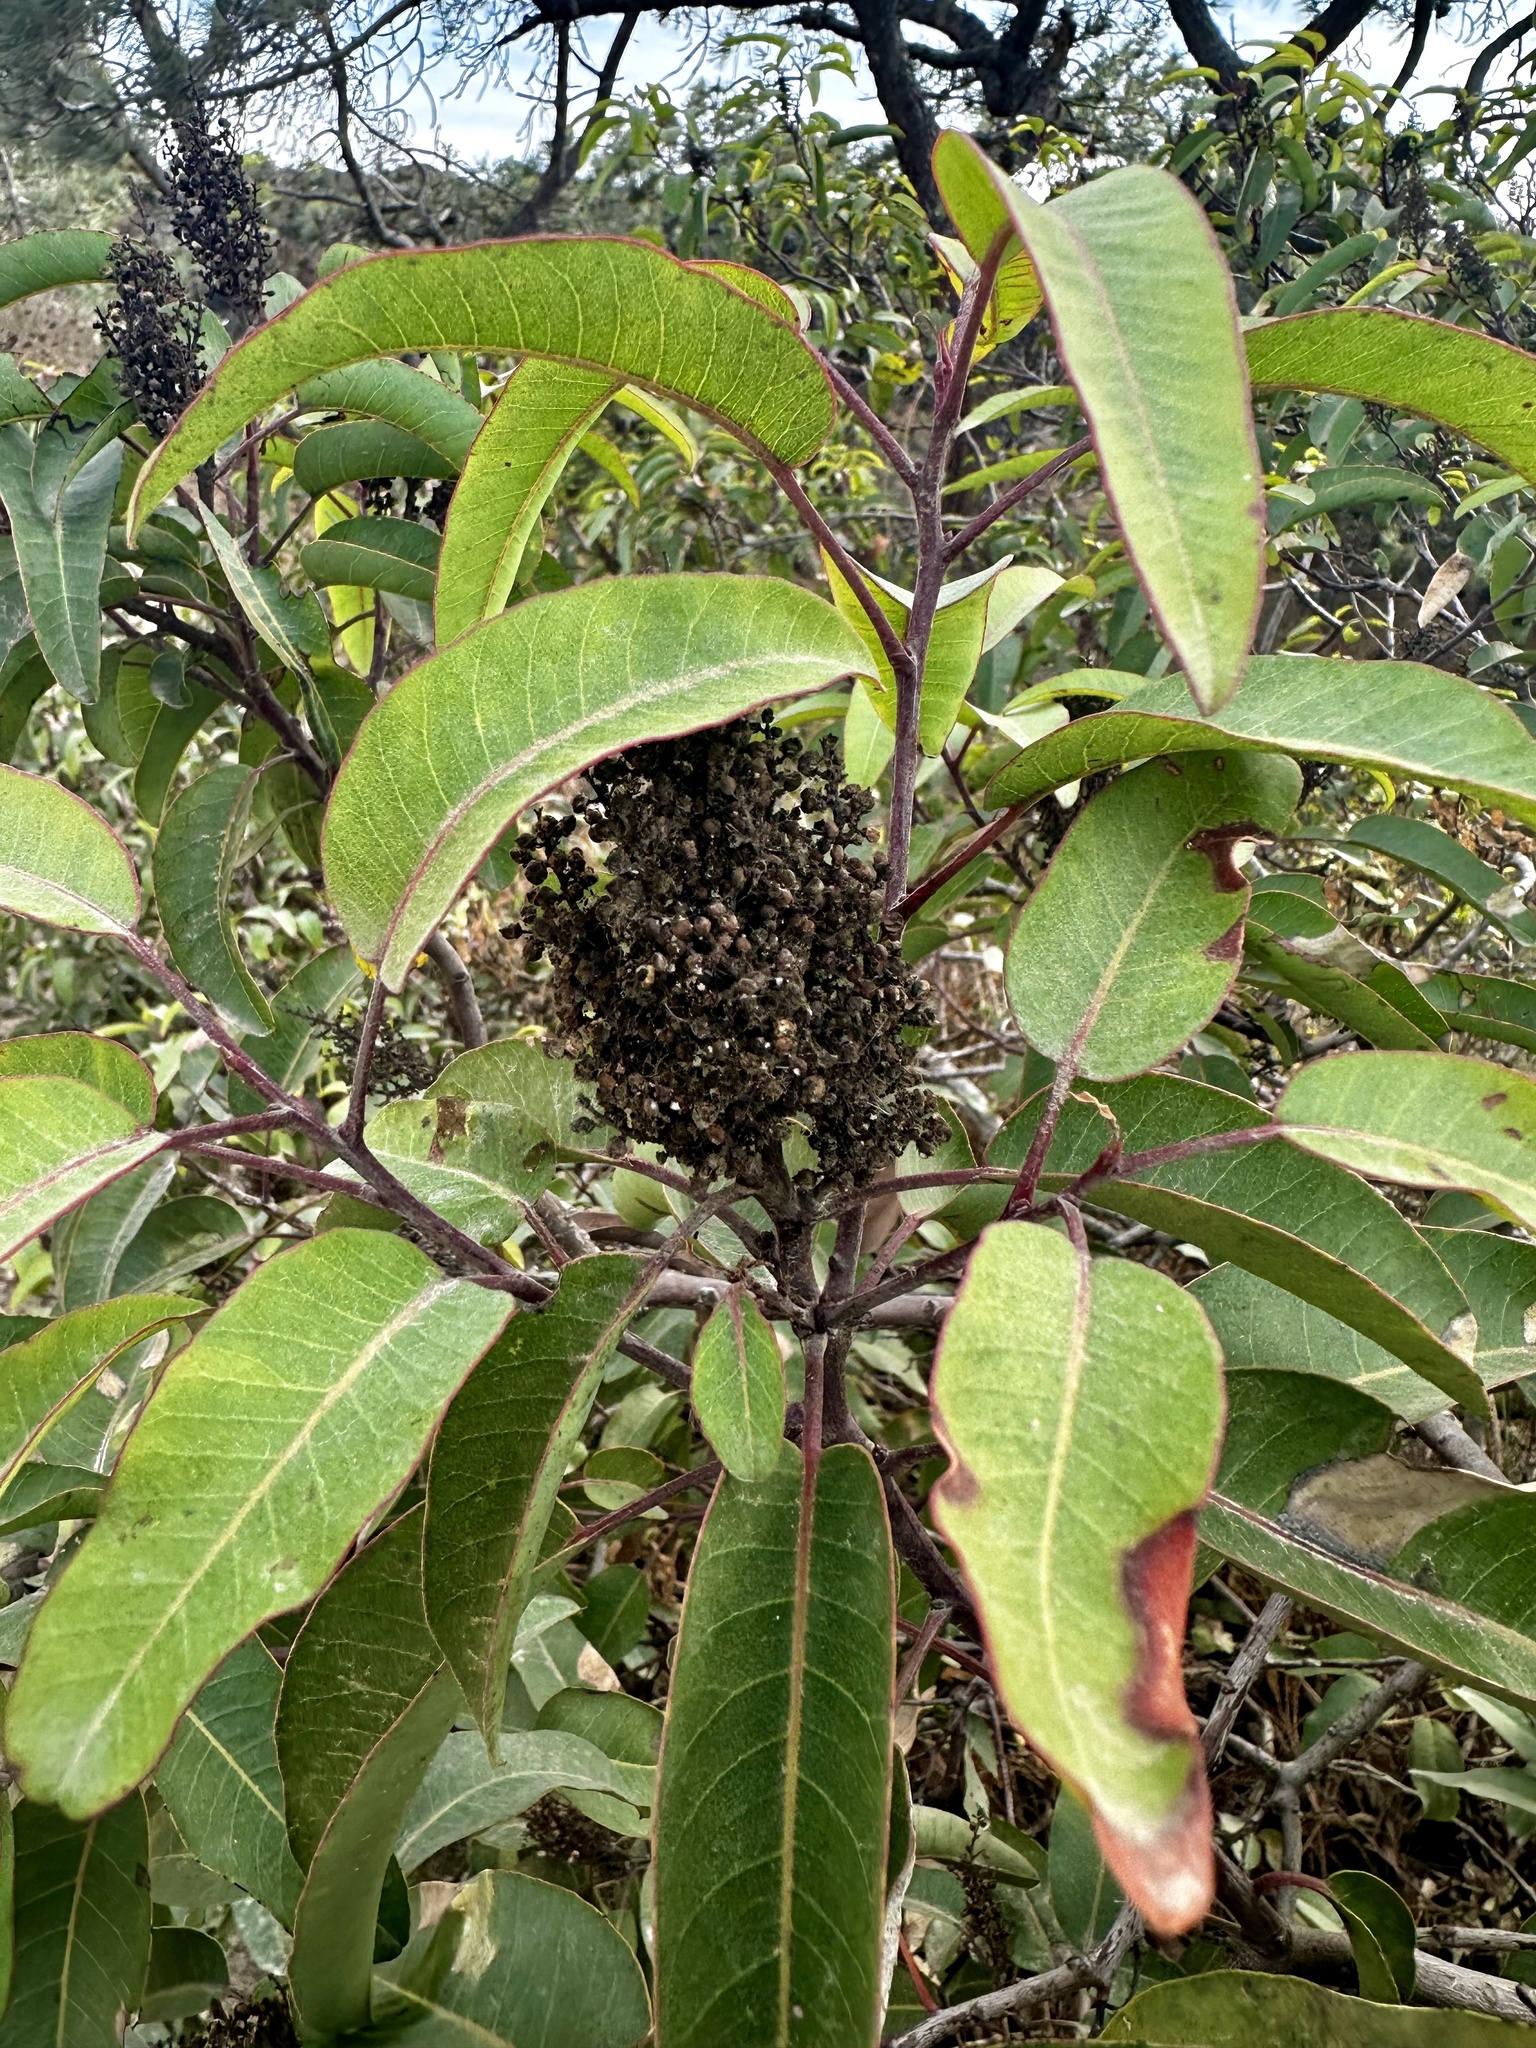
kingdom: Plantae
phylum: Tracheophyta
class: Magnoliopsida
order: Sapindales
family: Anacardiaceae
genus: Malosma
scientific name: Malosma laurina
